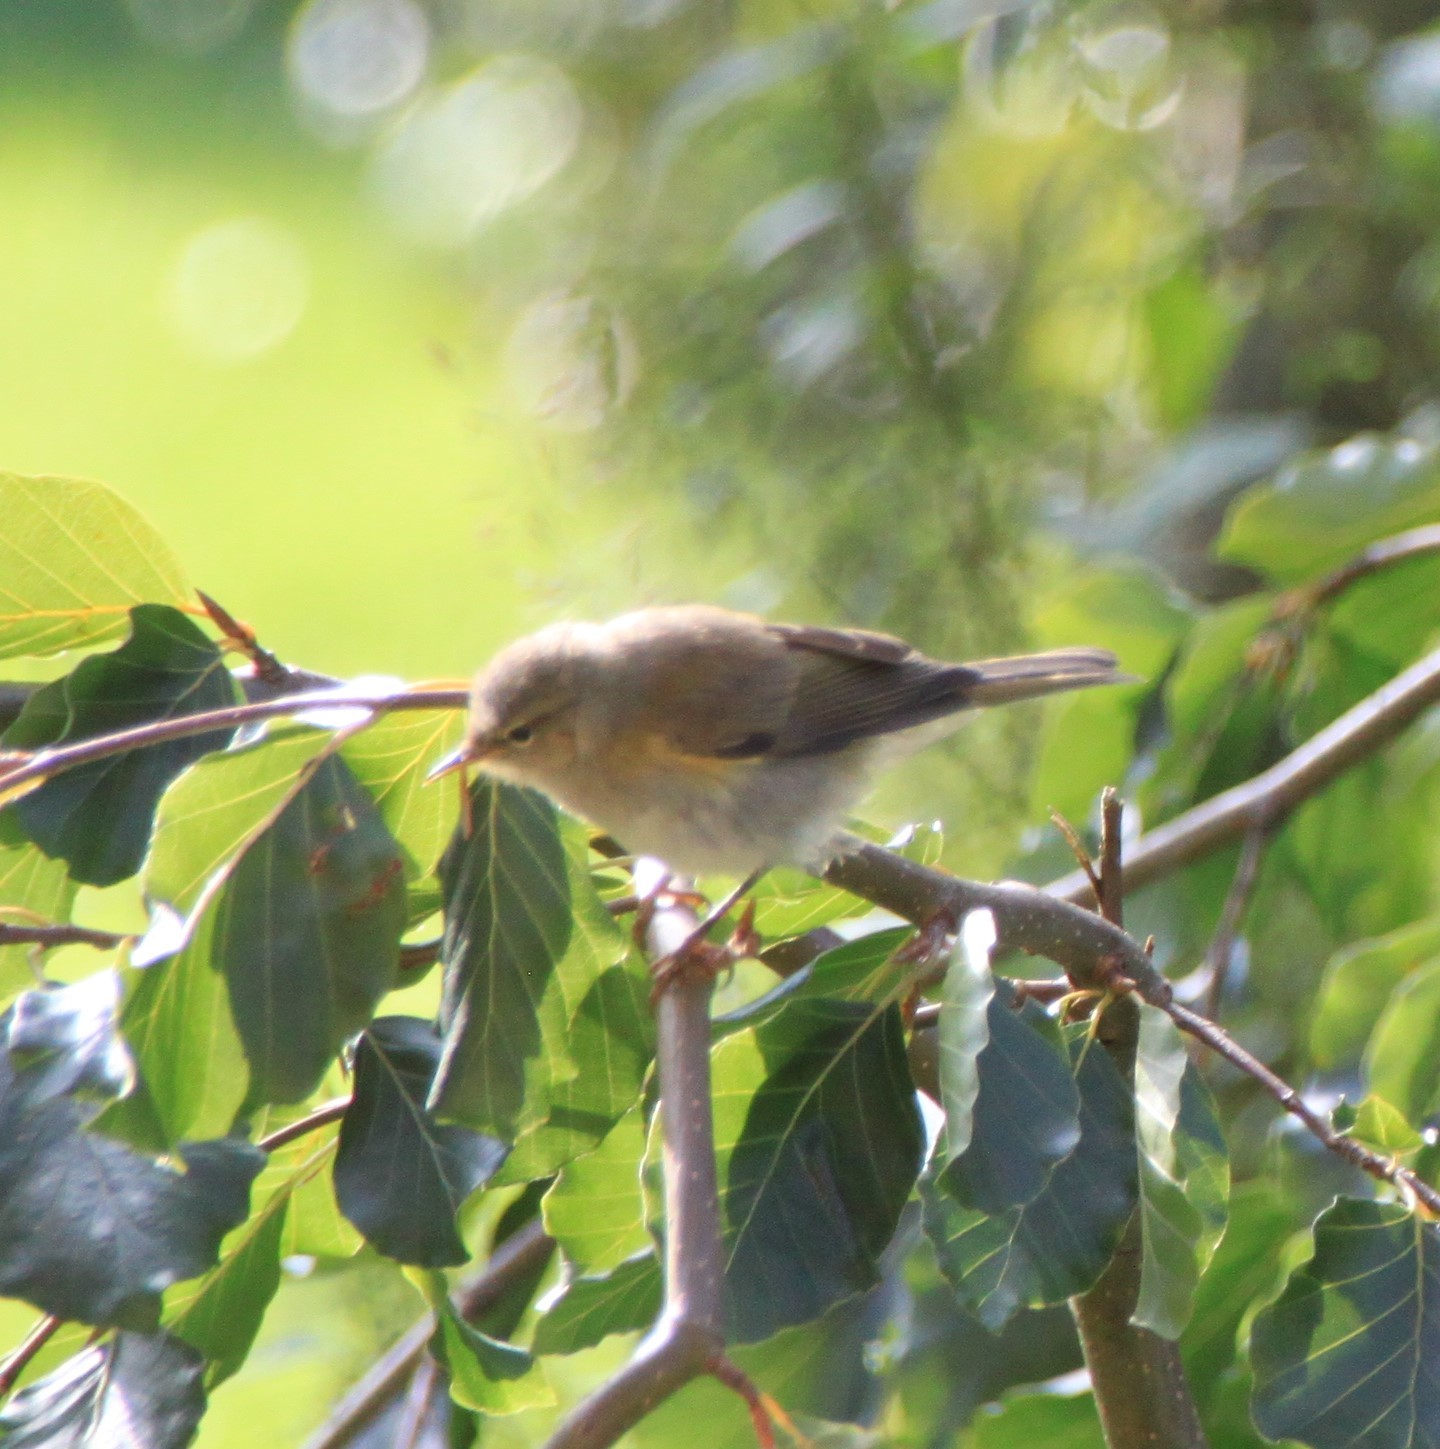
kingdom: Animalia
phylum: Chordata
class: Aves
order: Passeriformes
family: Phylloscopidae
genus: Phylloscopus
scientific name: Phylloscopus collybita
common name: Common chiffchaff
